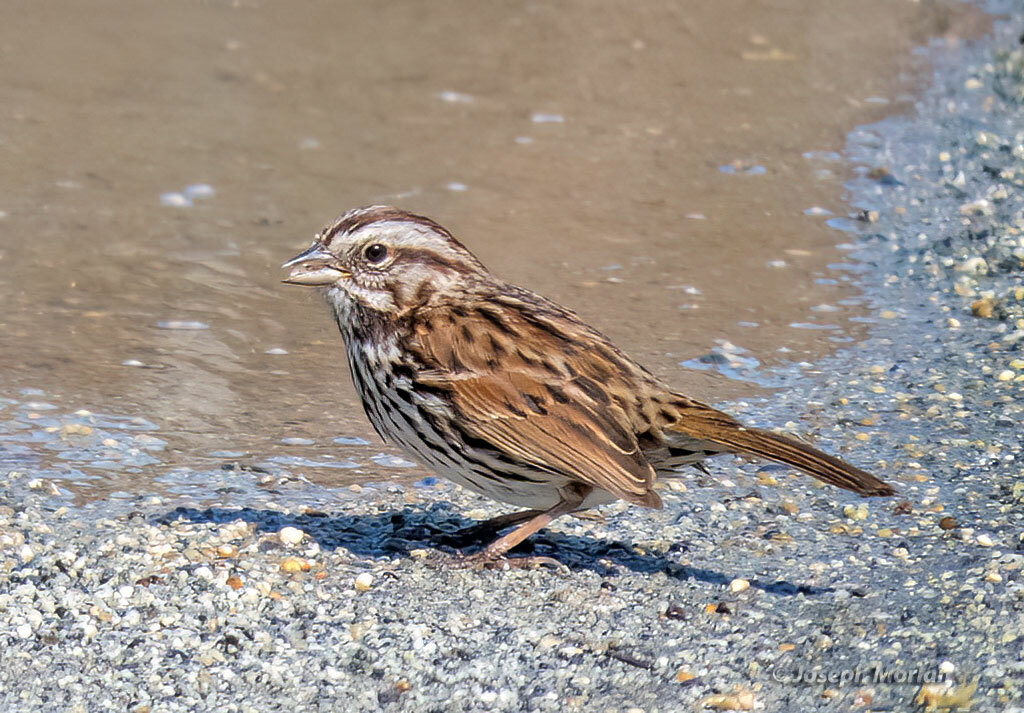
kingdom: Animalia
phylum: Chordata
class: Aves
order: Passeriformes
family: Passerellidae
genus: Melospiza
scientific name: Melospiza melodia
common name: Song sparrow
